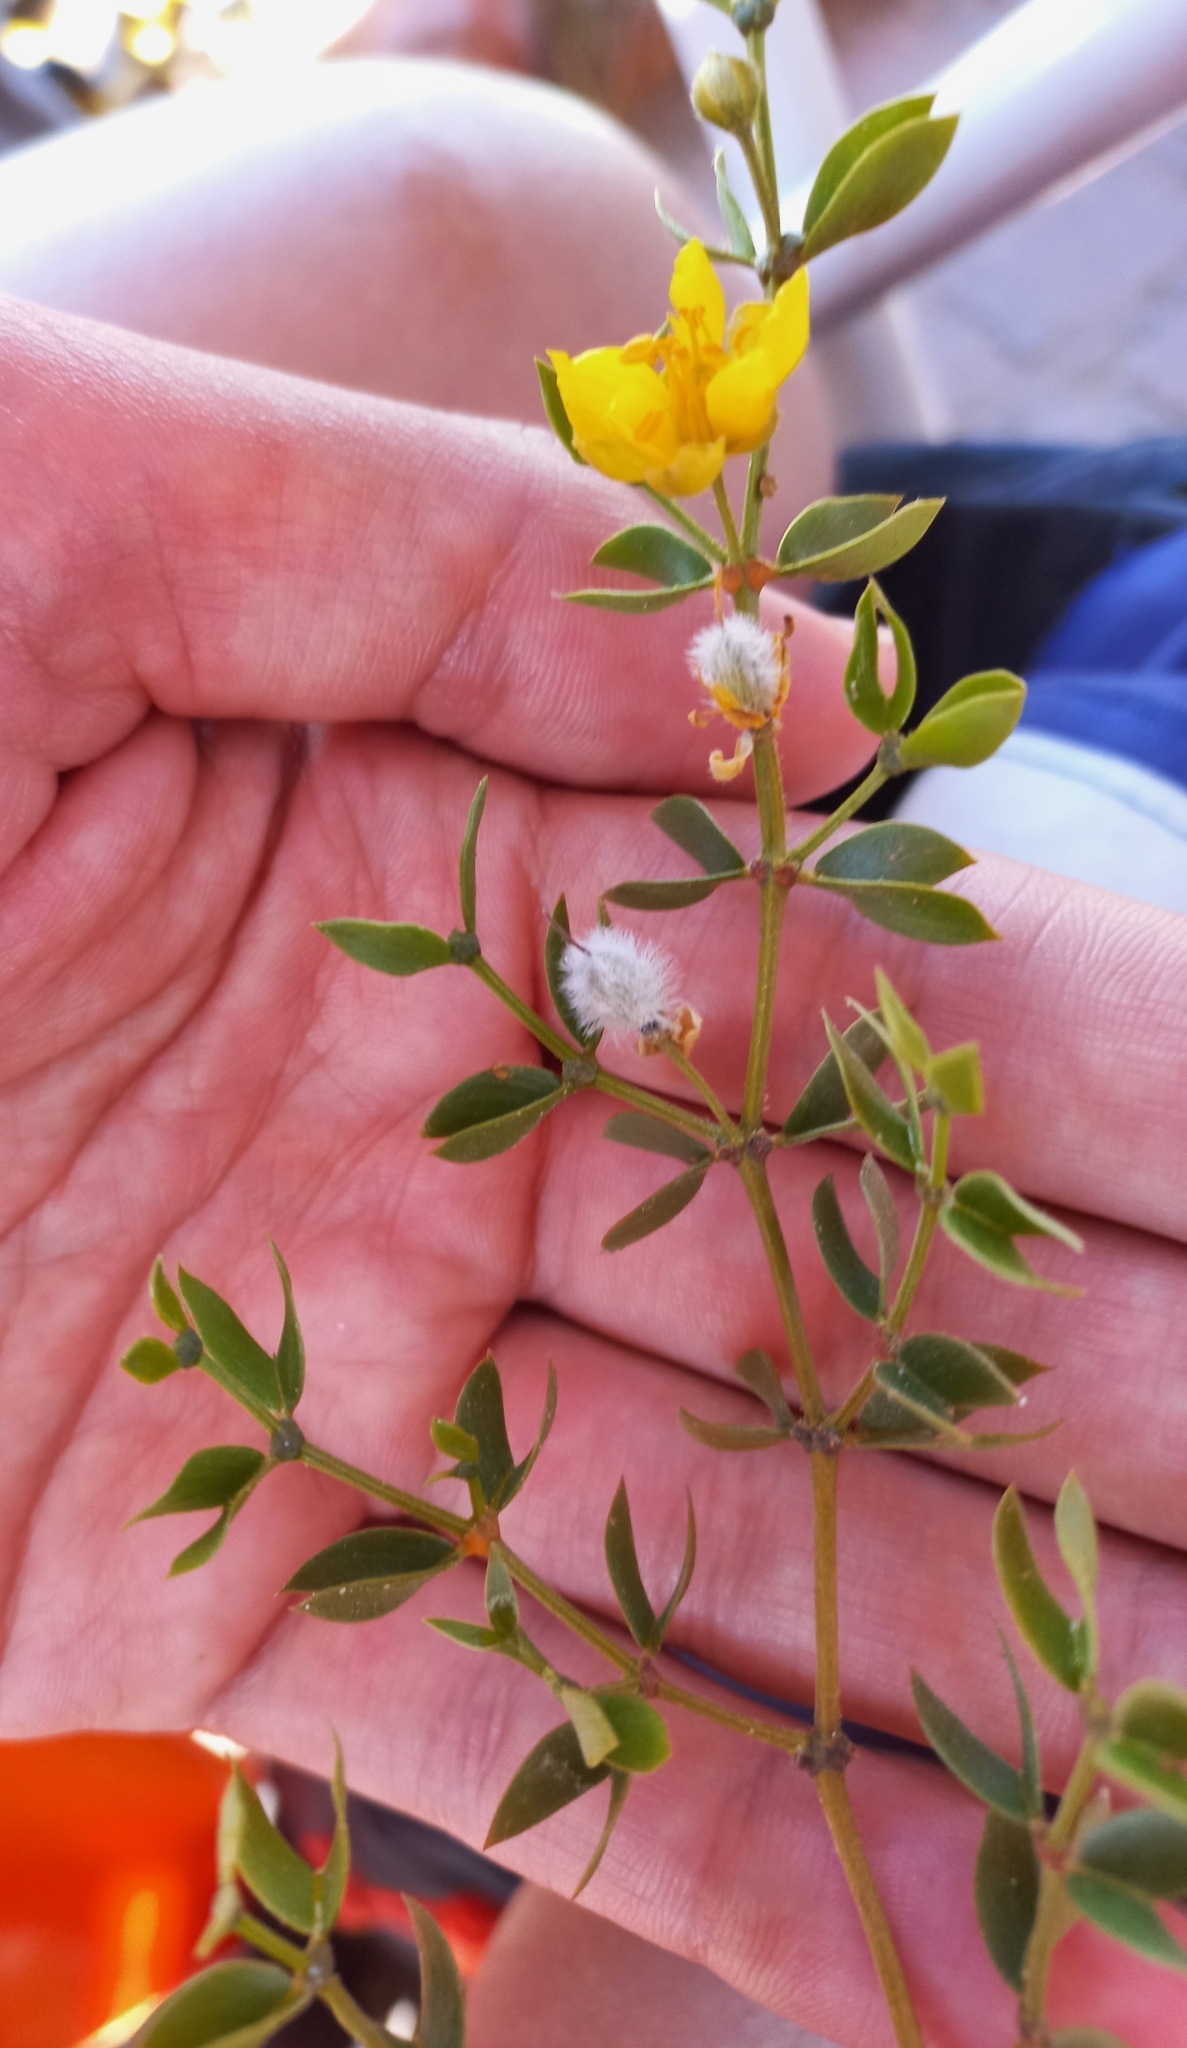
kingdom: Plantae
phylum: Tracheophyta
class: Magnoliopsida
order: Zygophyllales
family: Zygophyllaceae
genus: Larrea
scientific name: Larrea divaricata
